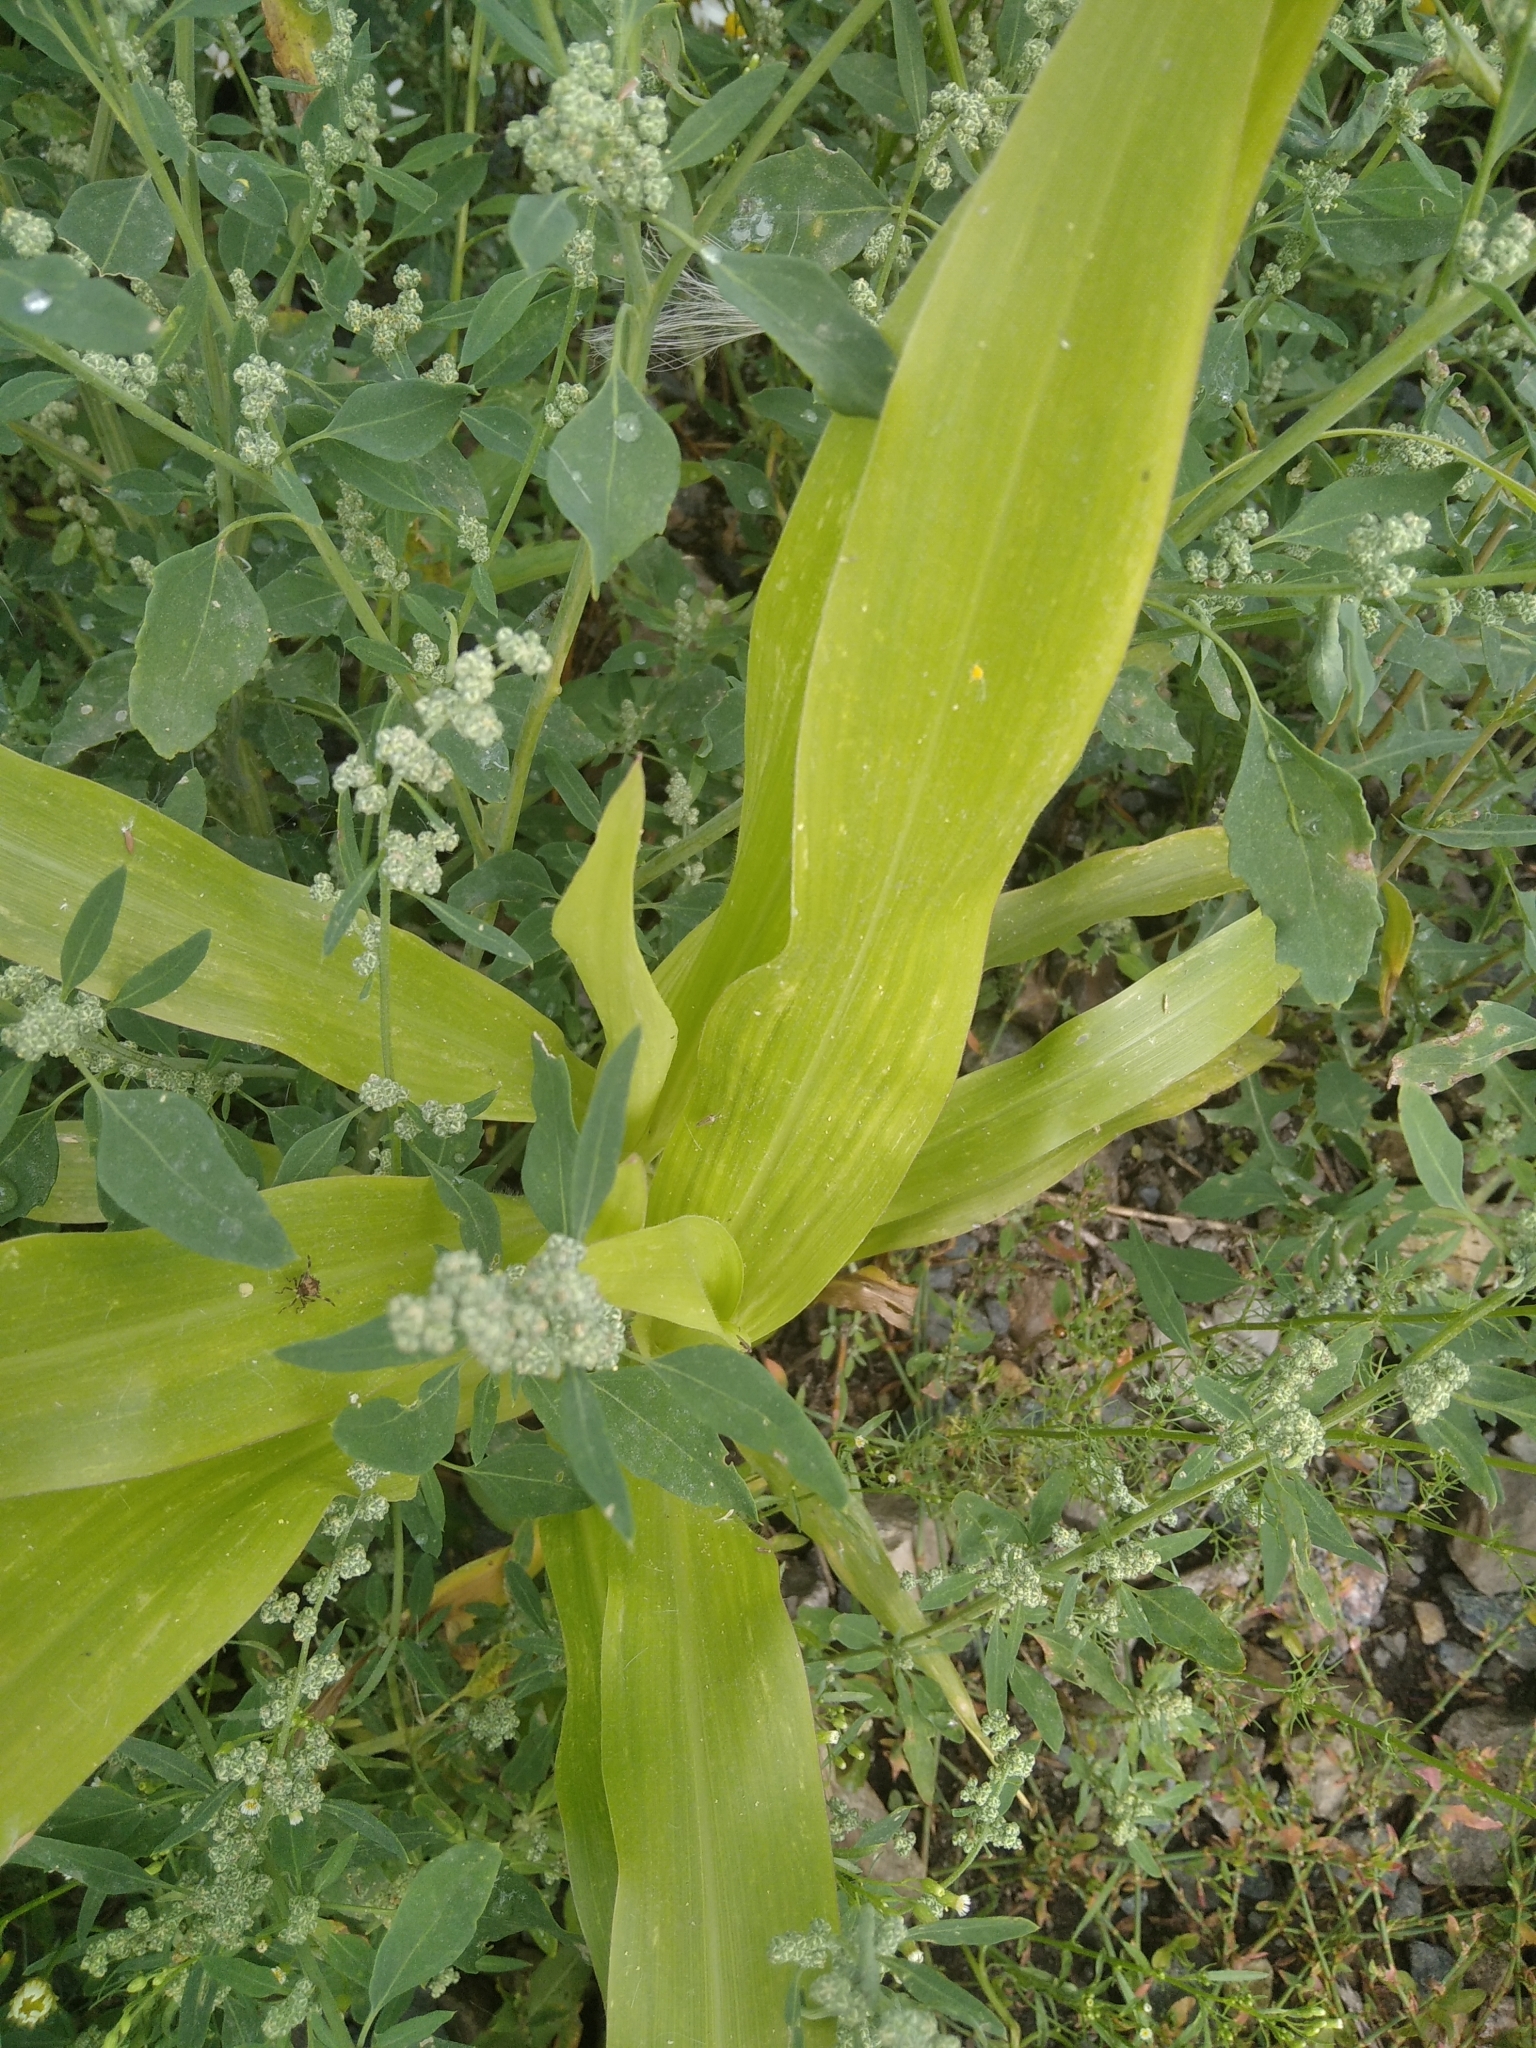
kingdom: Plantae
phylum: Tracheophyta
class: Liliopsida
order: Poales
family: Poaceae
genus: Zea
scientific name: Zea mays
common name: Maize
